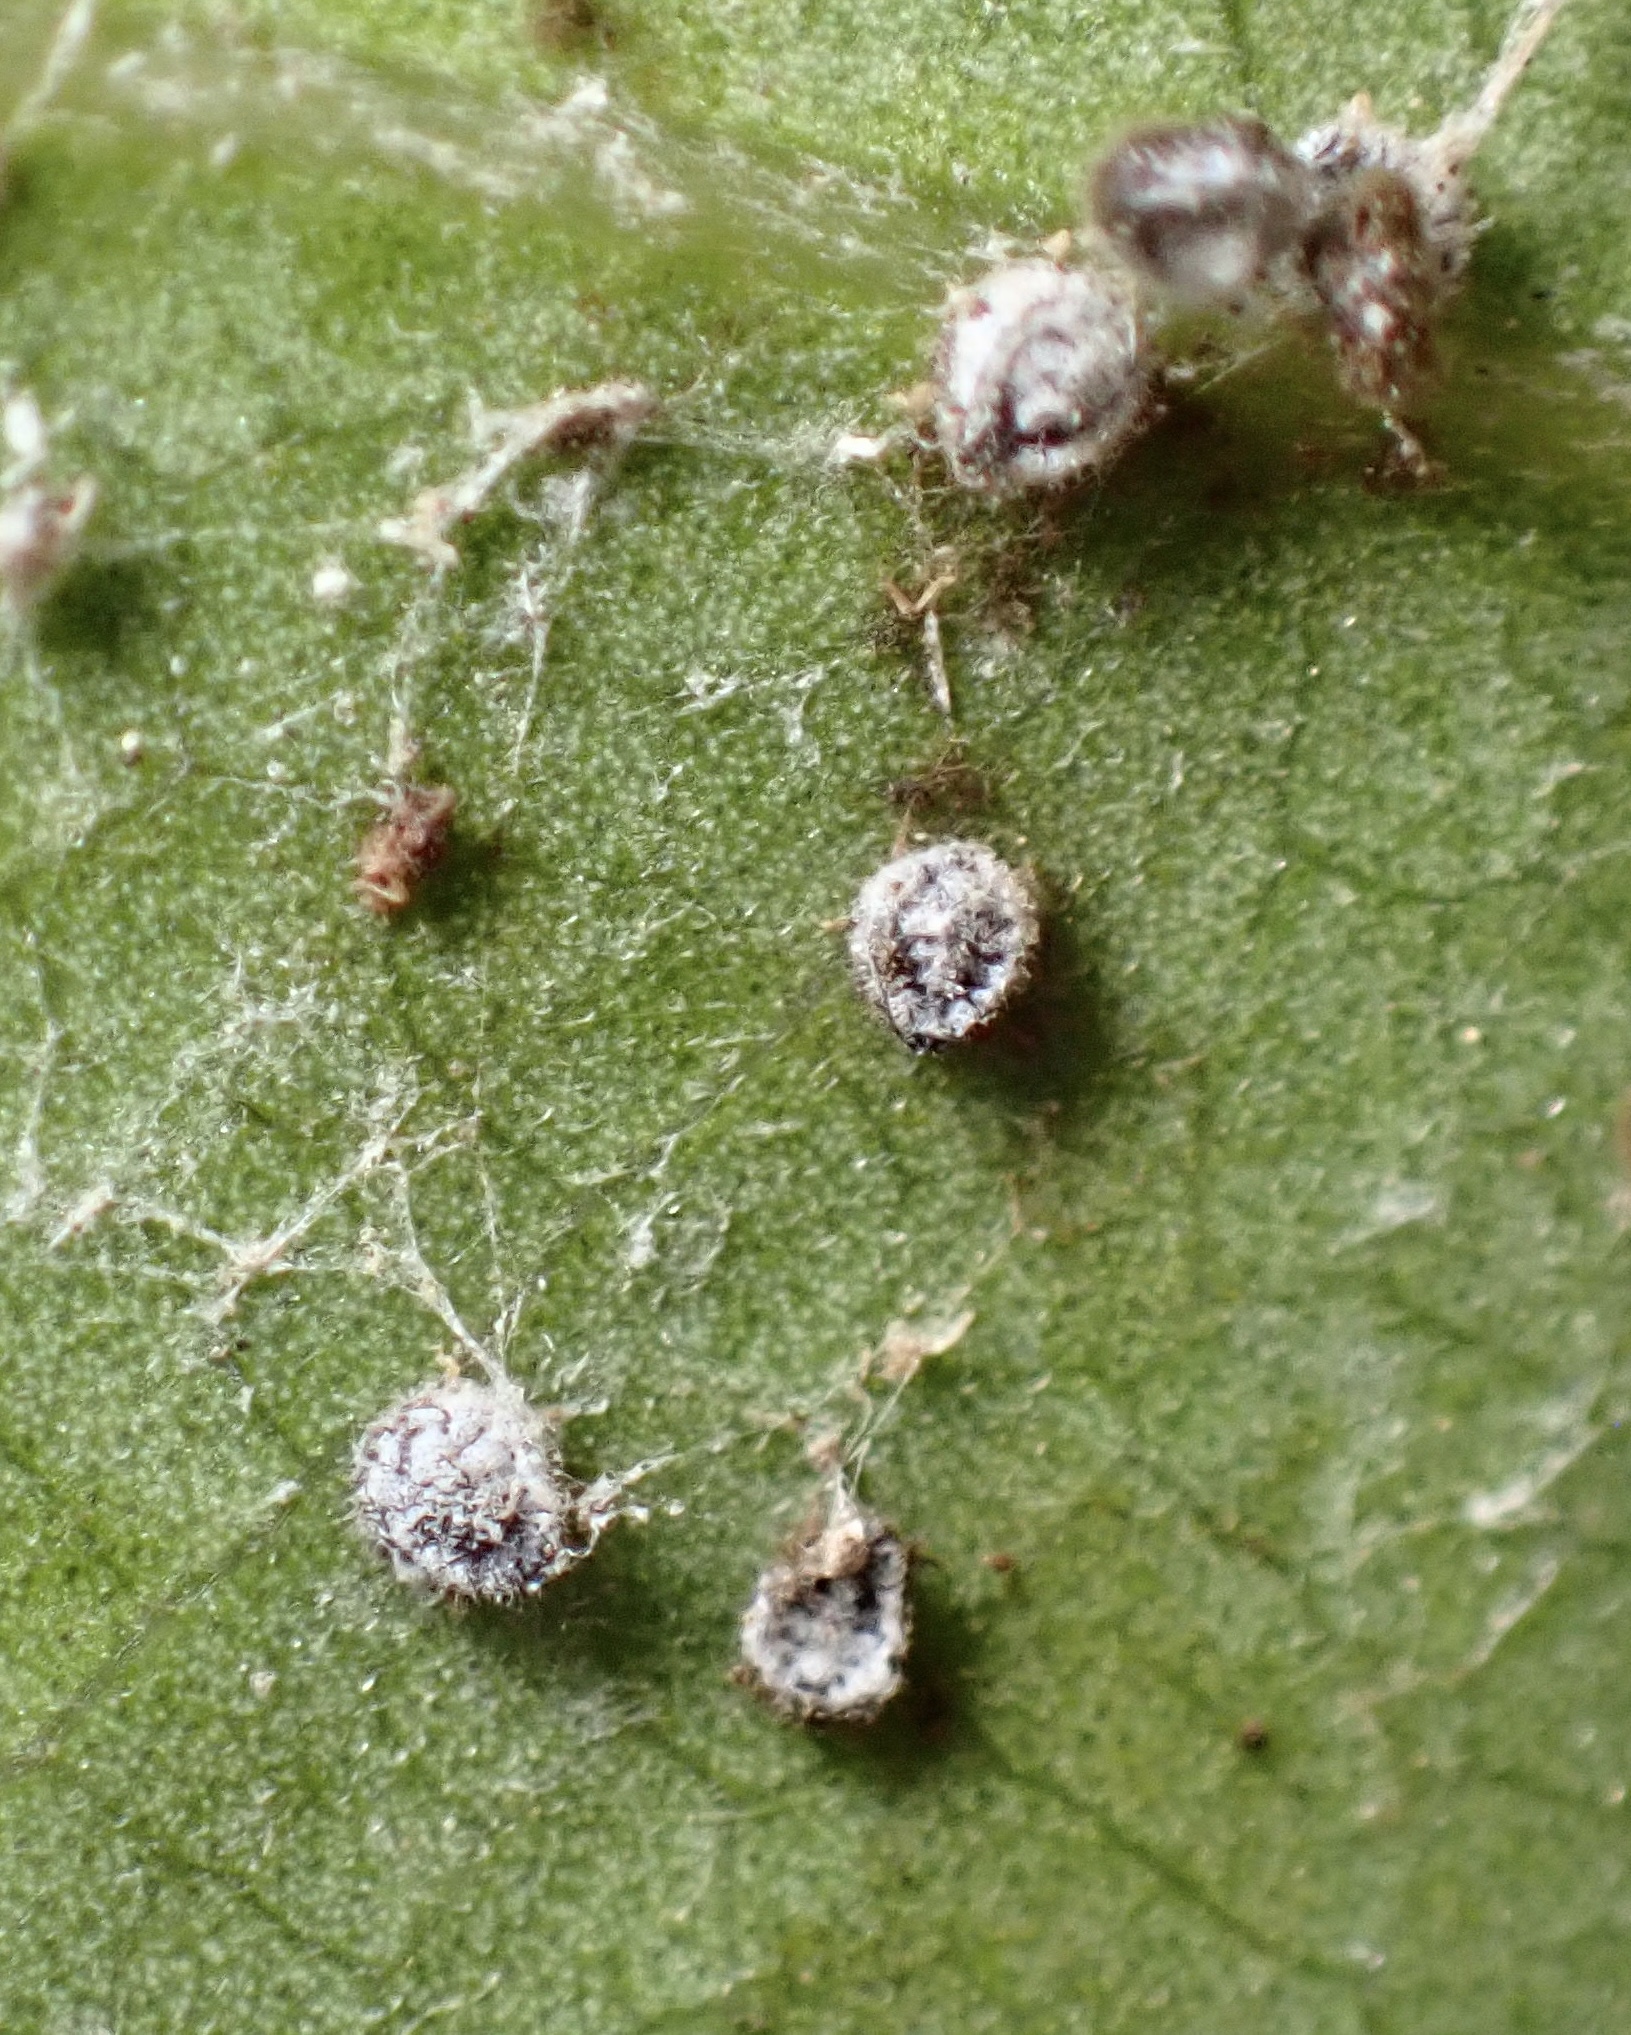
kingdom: Animalia
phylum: Arthropoda
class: Insecta
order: Hemiptera
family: Aphididae
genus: Euthoracaphis
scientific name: Euthoracaphis umbellulariae
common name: Aphid
